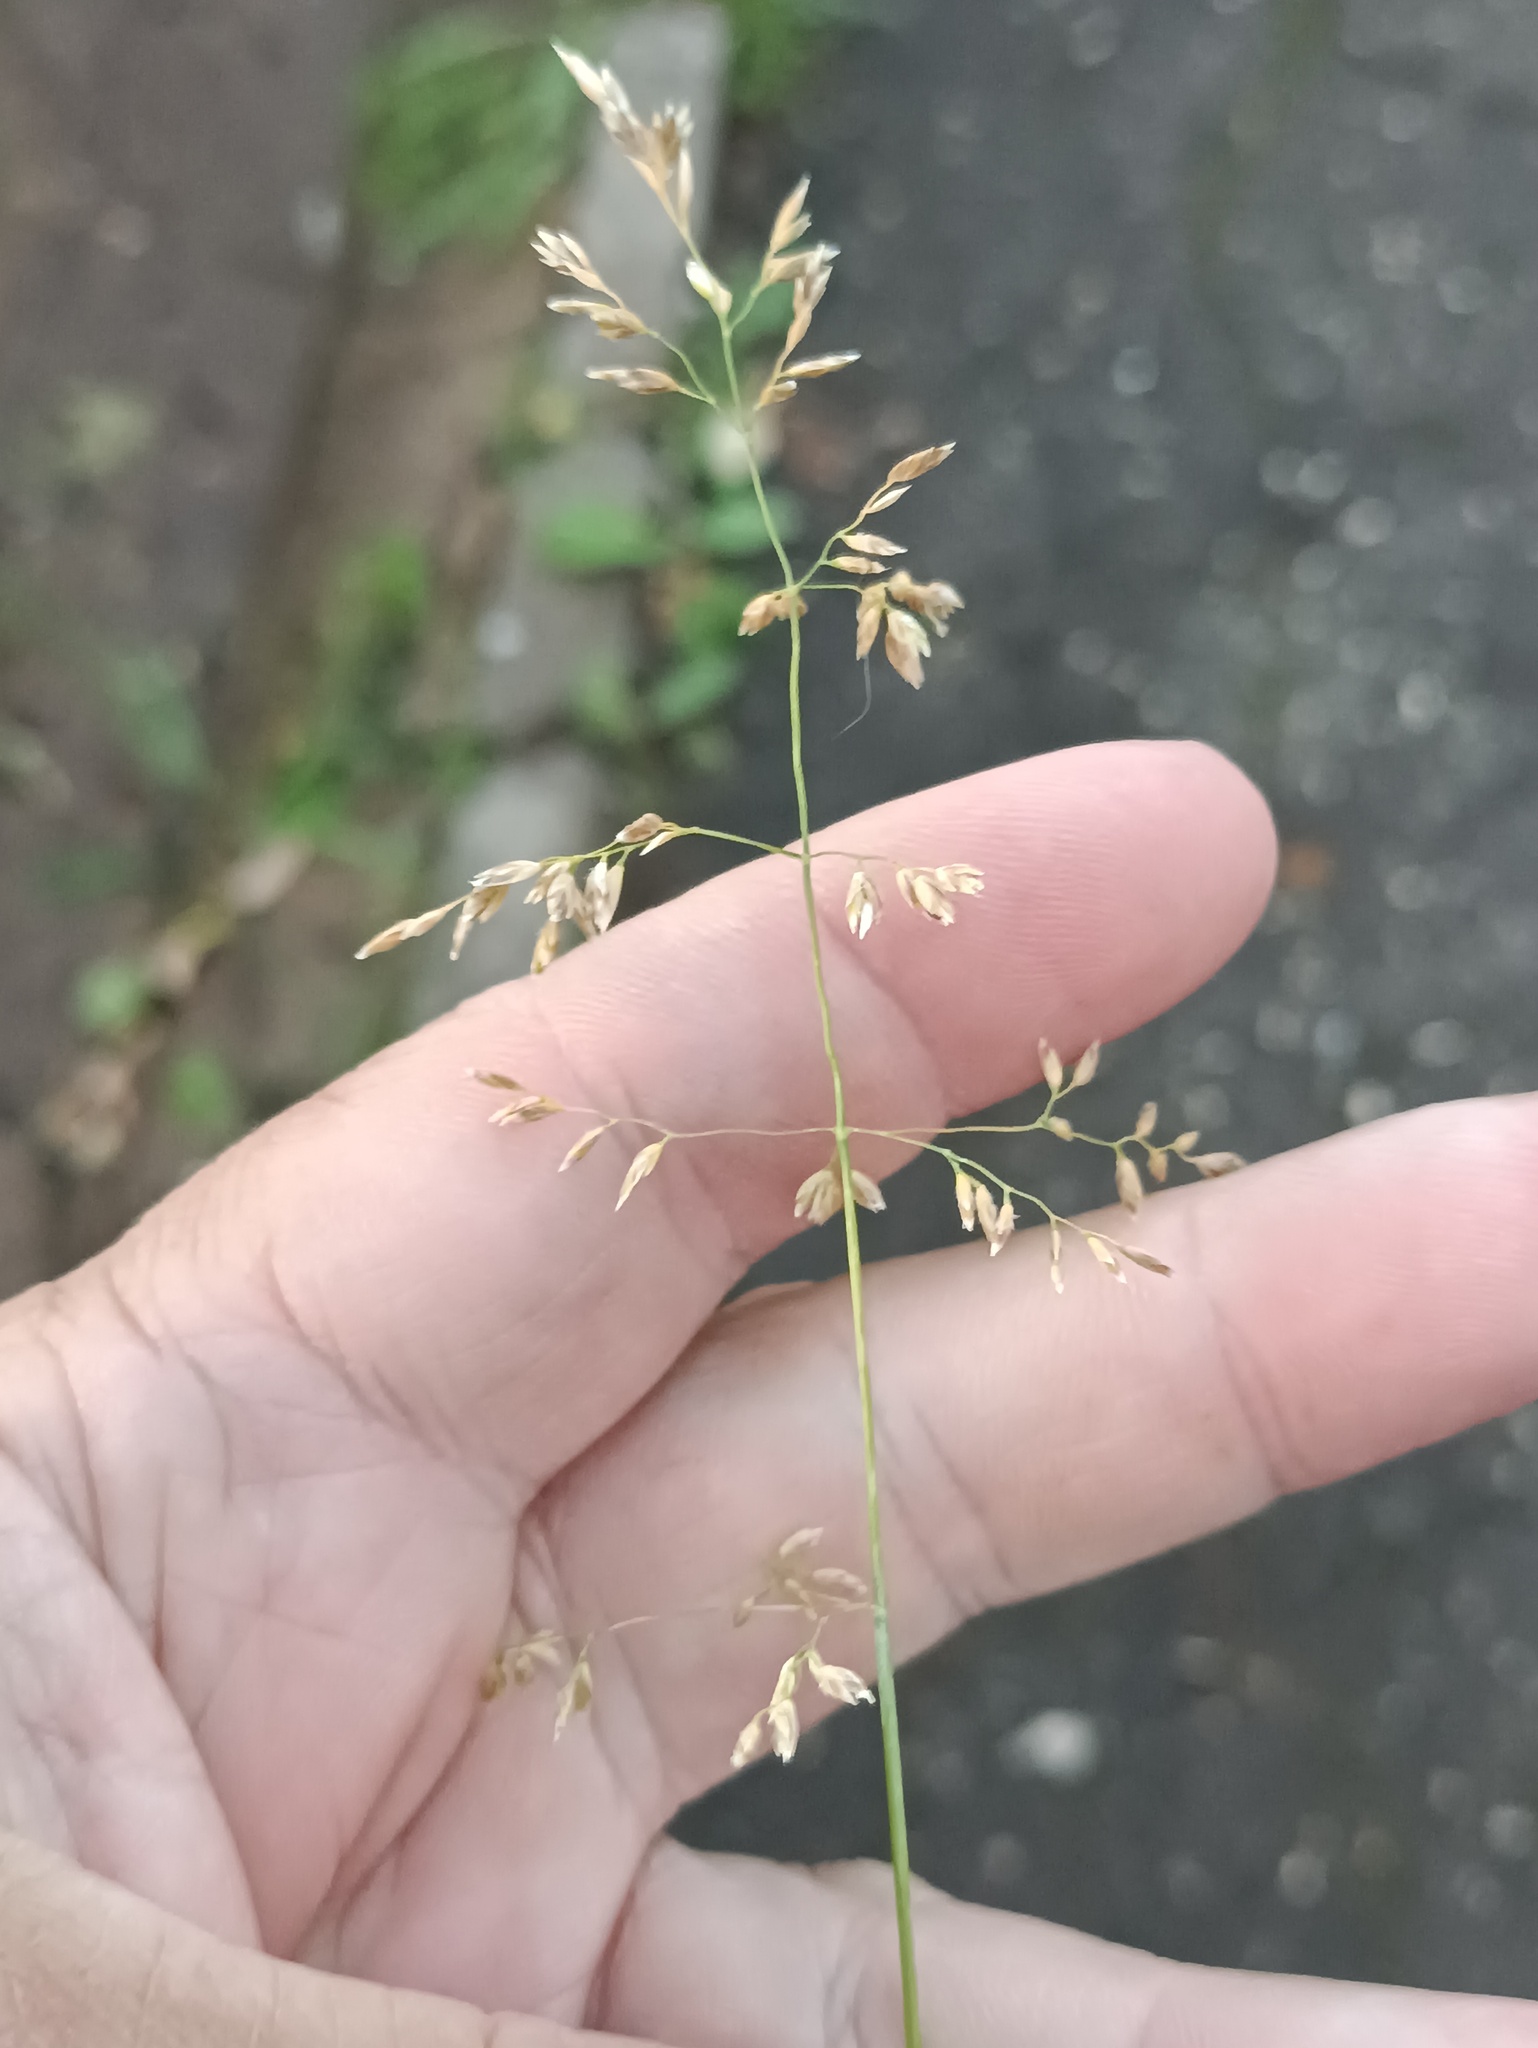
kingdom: Plantae
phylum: Tracheophyta
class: Liliopsida
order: Poales
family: Poaceae
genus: Poa
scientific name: Poa pratensis
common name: Kentucky bluegrass
